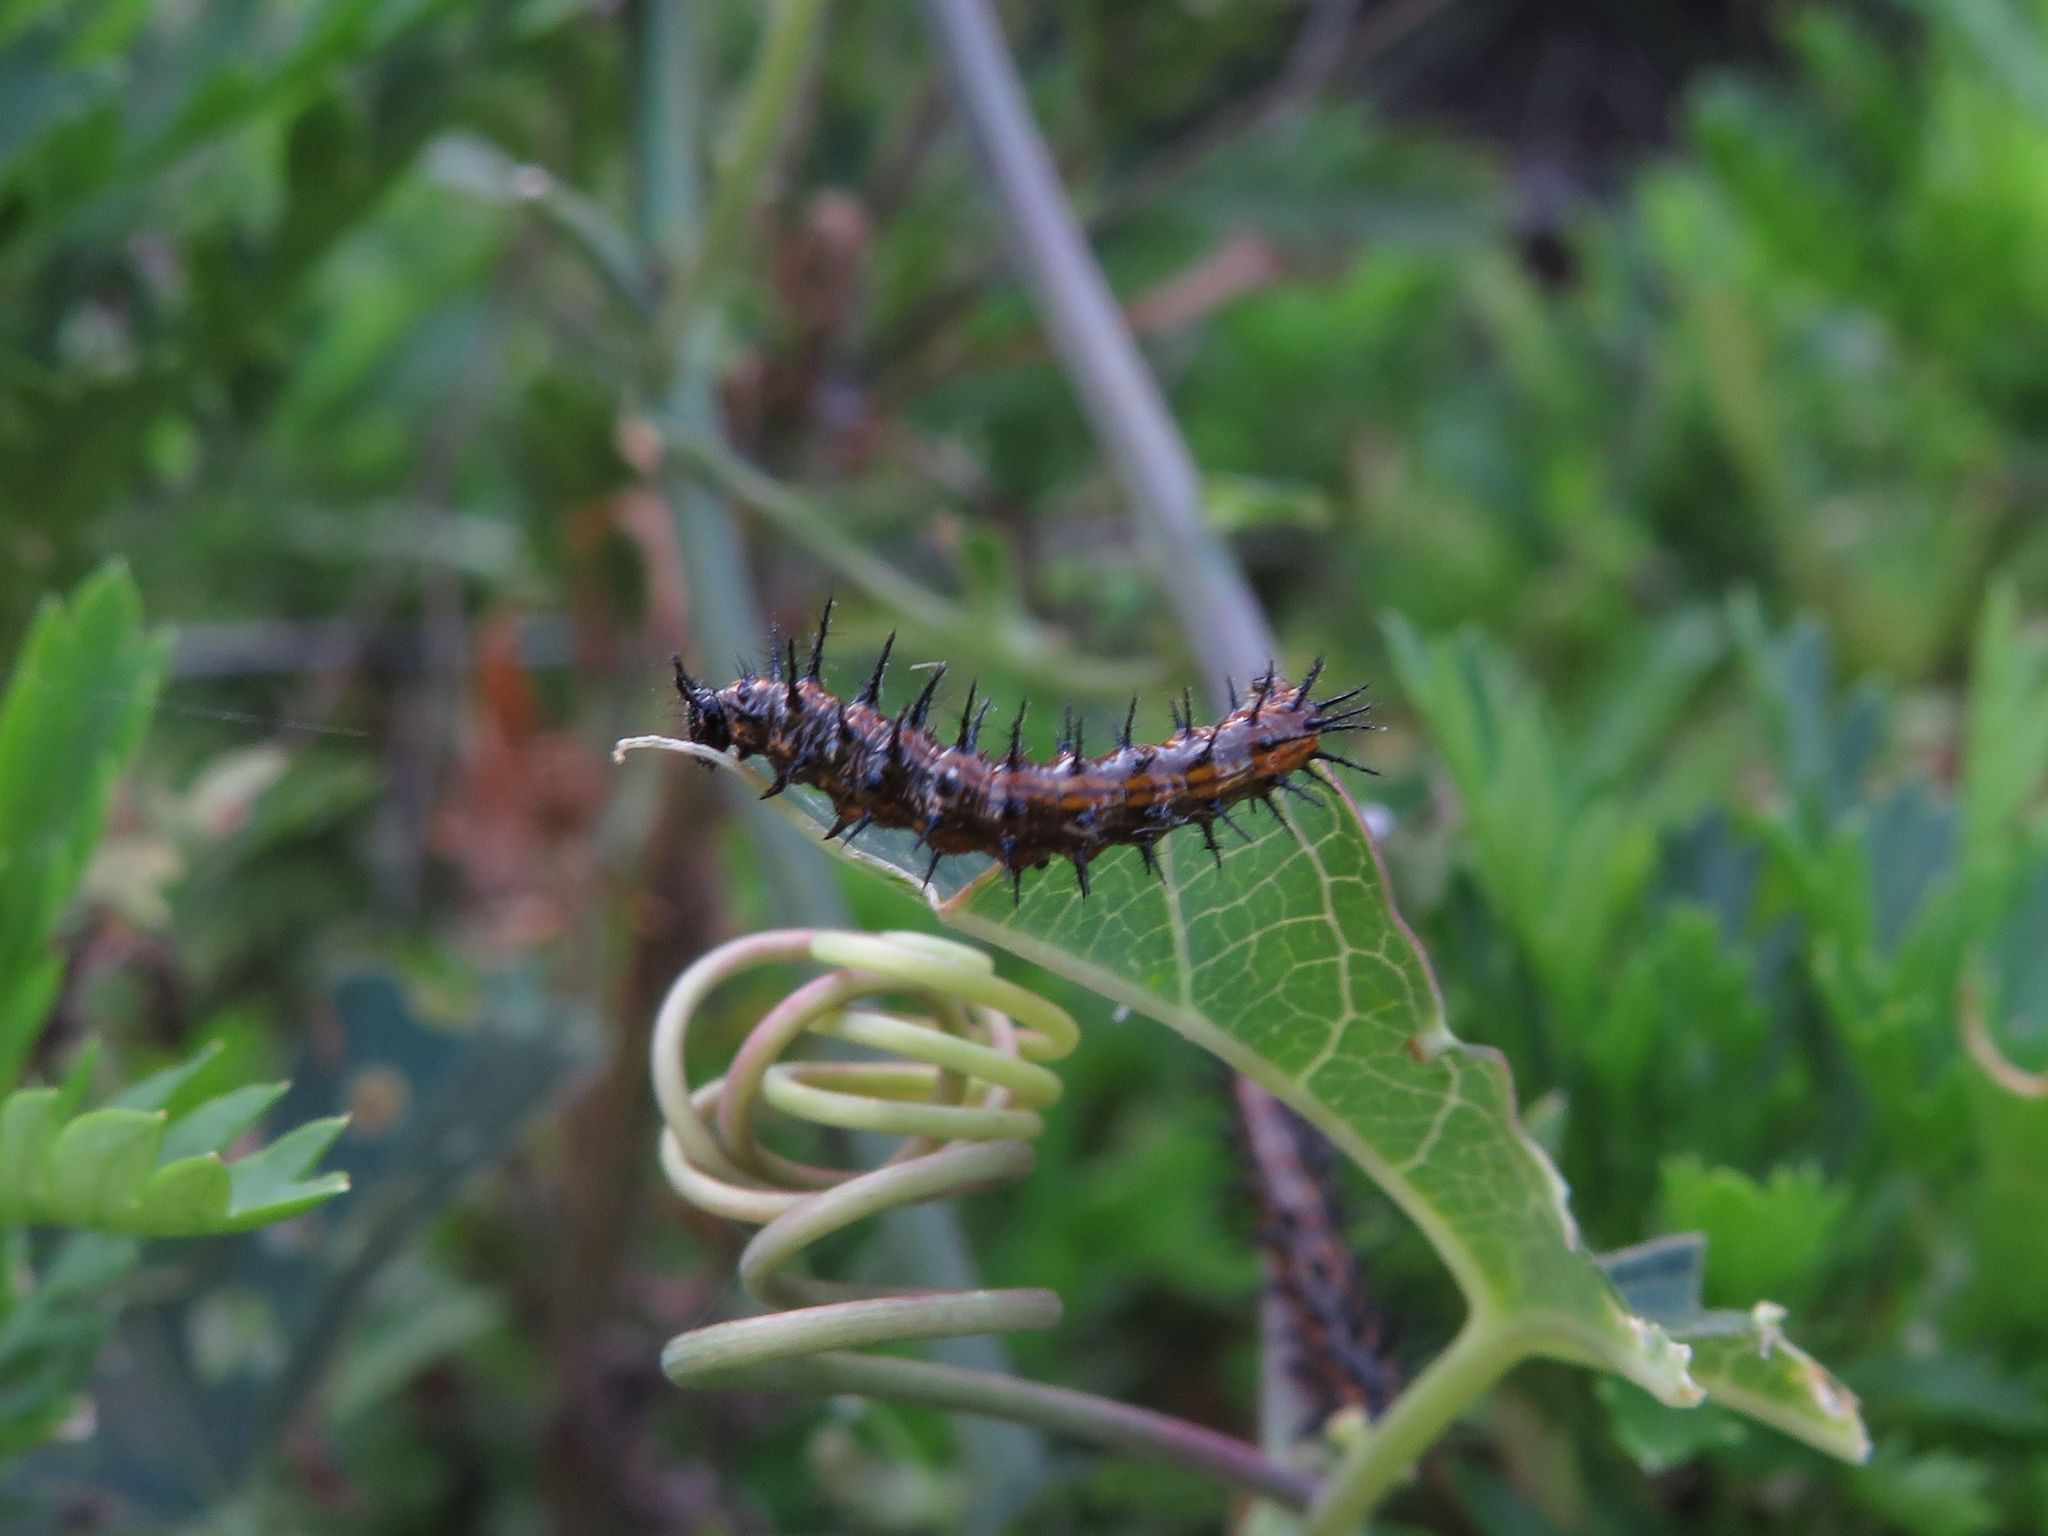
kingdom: Animalia
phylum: Arthropoda
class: Insecta
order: Lepidoptera
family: Nymphalidae
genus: Dione
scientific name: Dione vanillae
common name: Gulf fritillary
